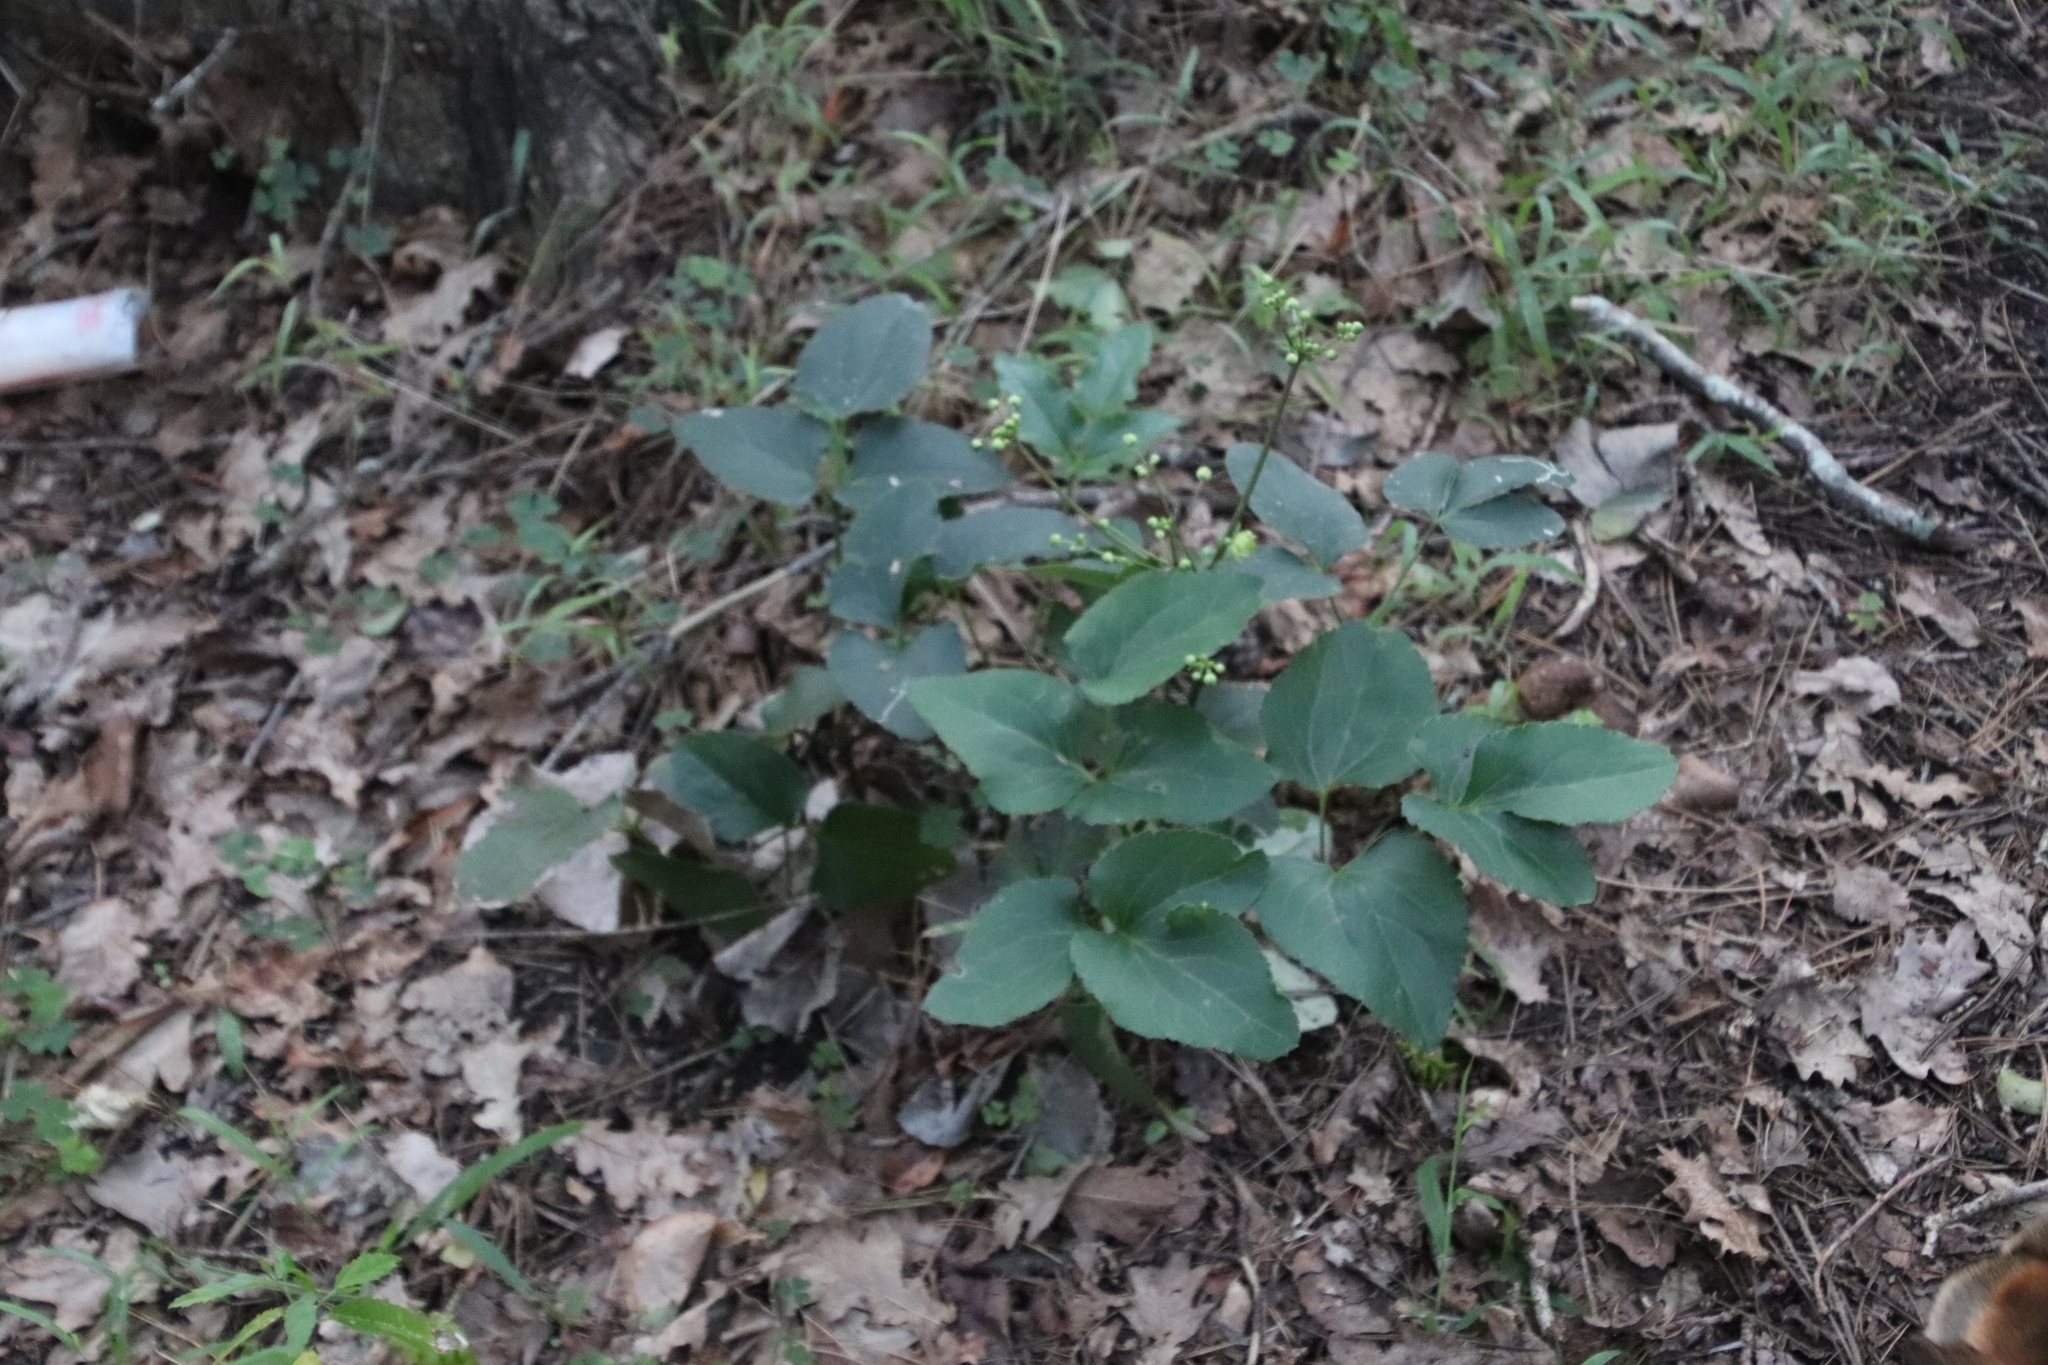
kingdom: Plantae
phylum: Tracheophyta
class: Magnoliopsida
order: Ranunculales
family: Ranunculaceae
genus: Knowltonia
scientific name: Knowltonia vesicatoria
